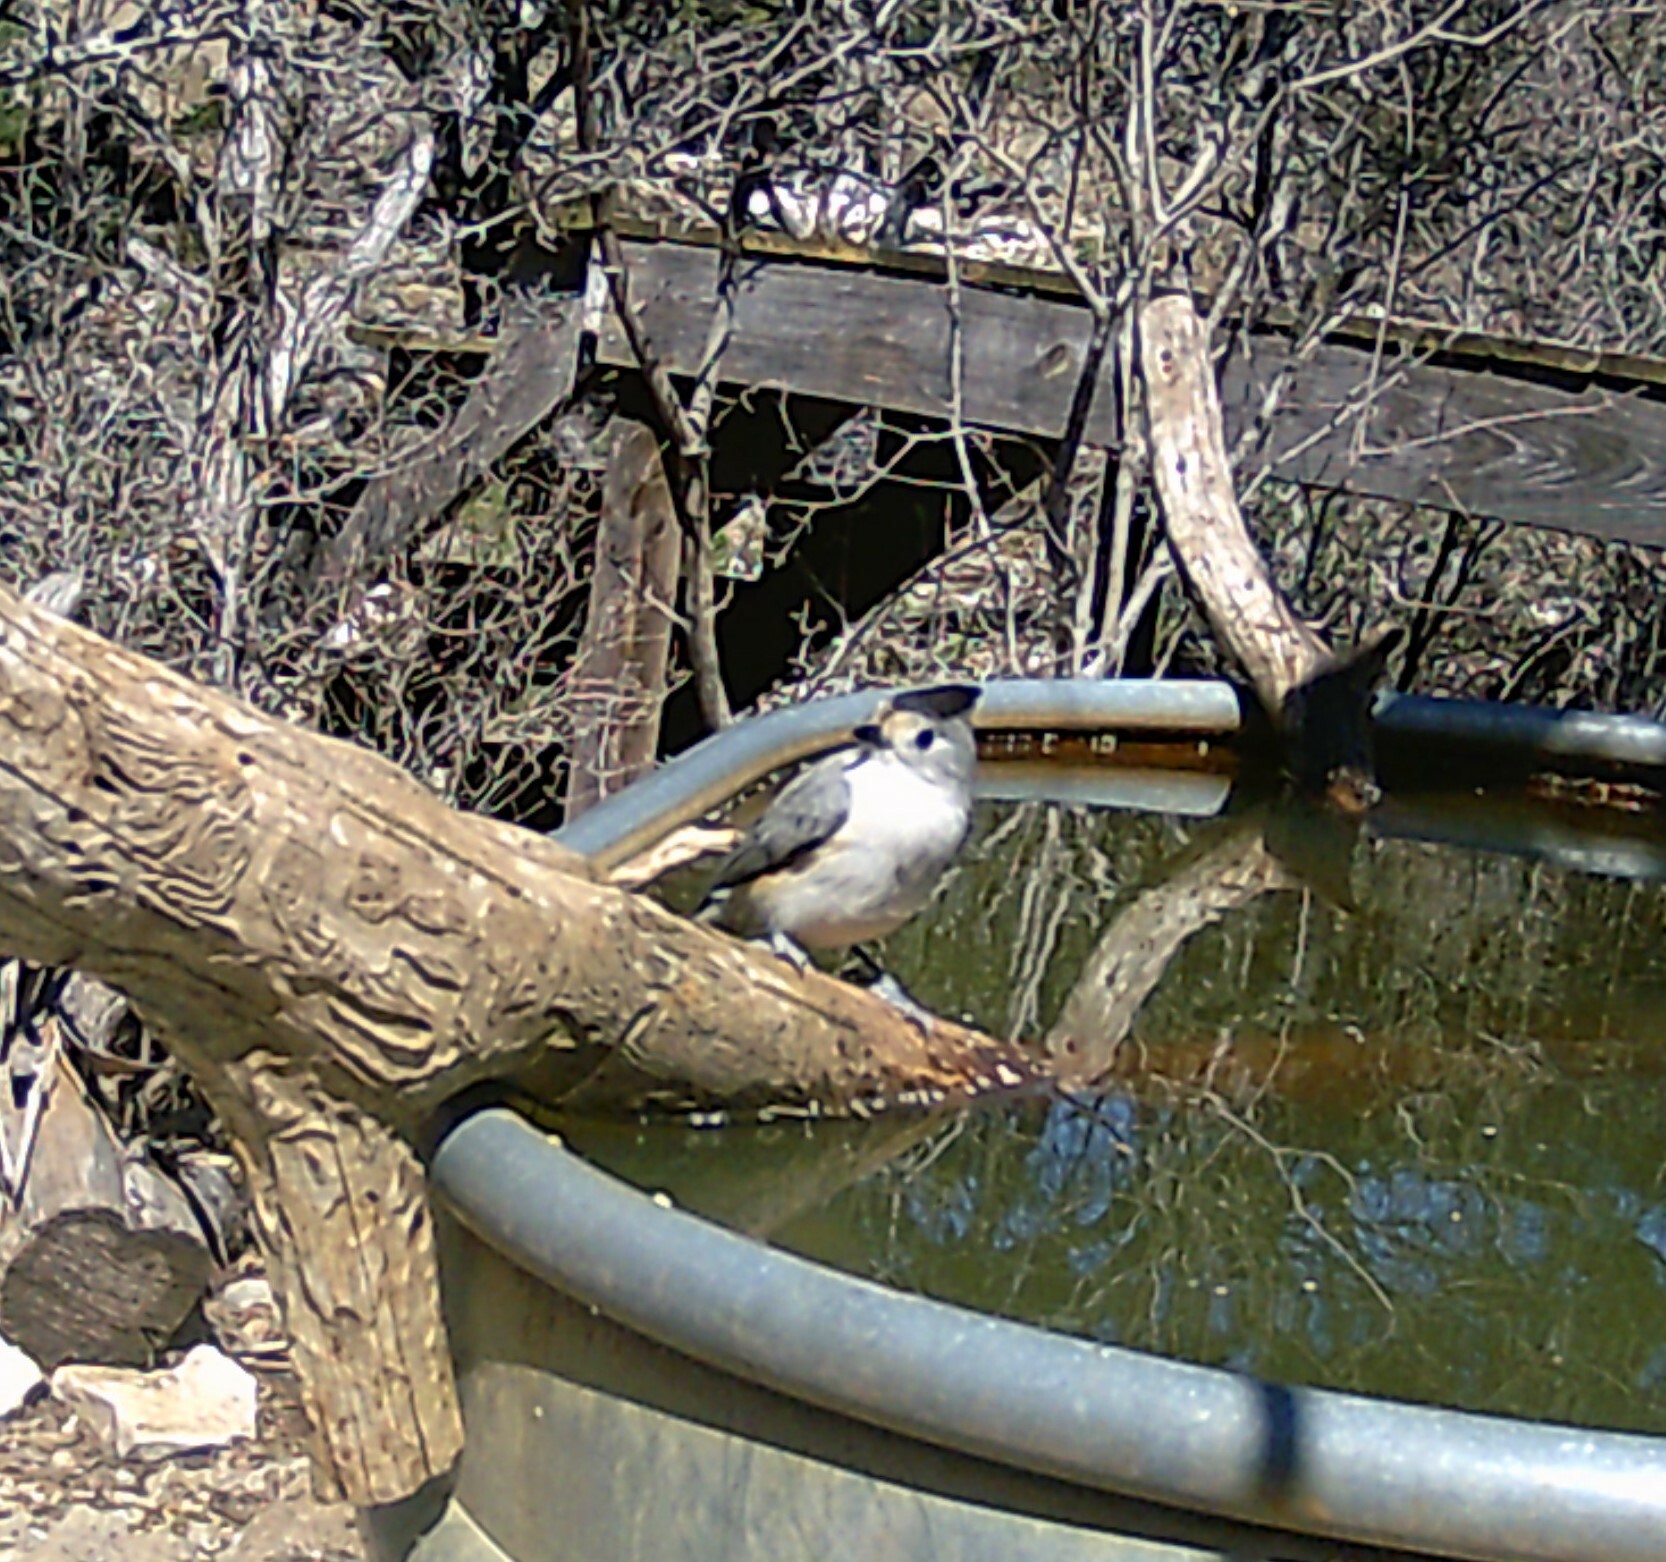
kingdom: Animalia
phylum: Chordata
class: Aves
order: Passeriformes
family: Paridae
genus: Baeolophus
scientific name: Baeolophus atricristatus
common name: Black-crested titmouse
